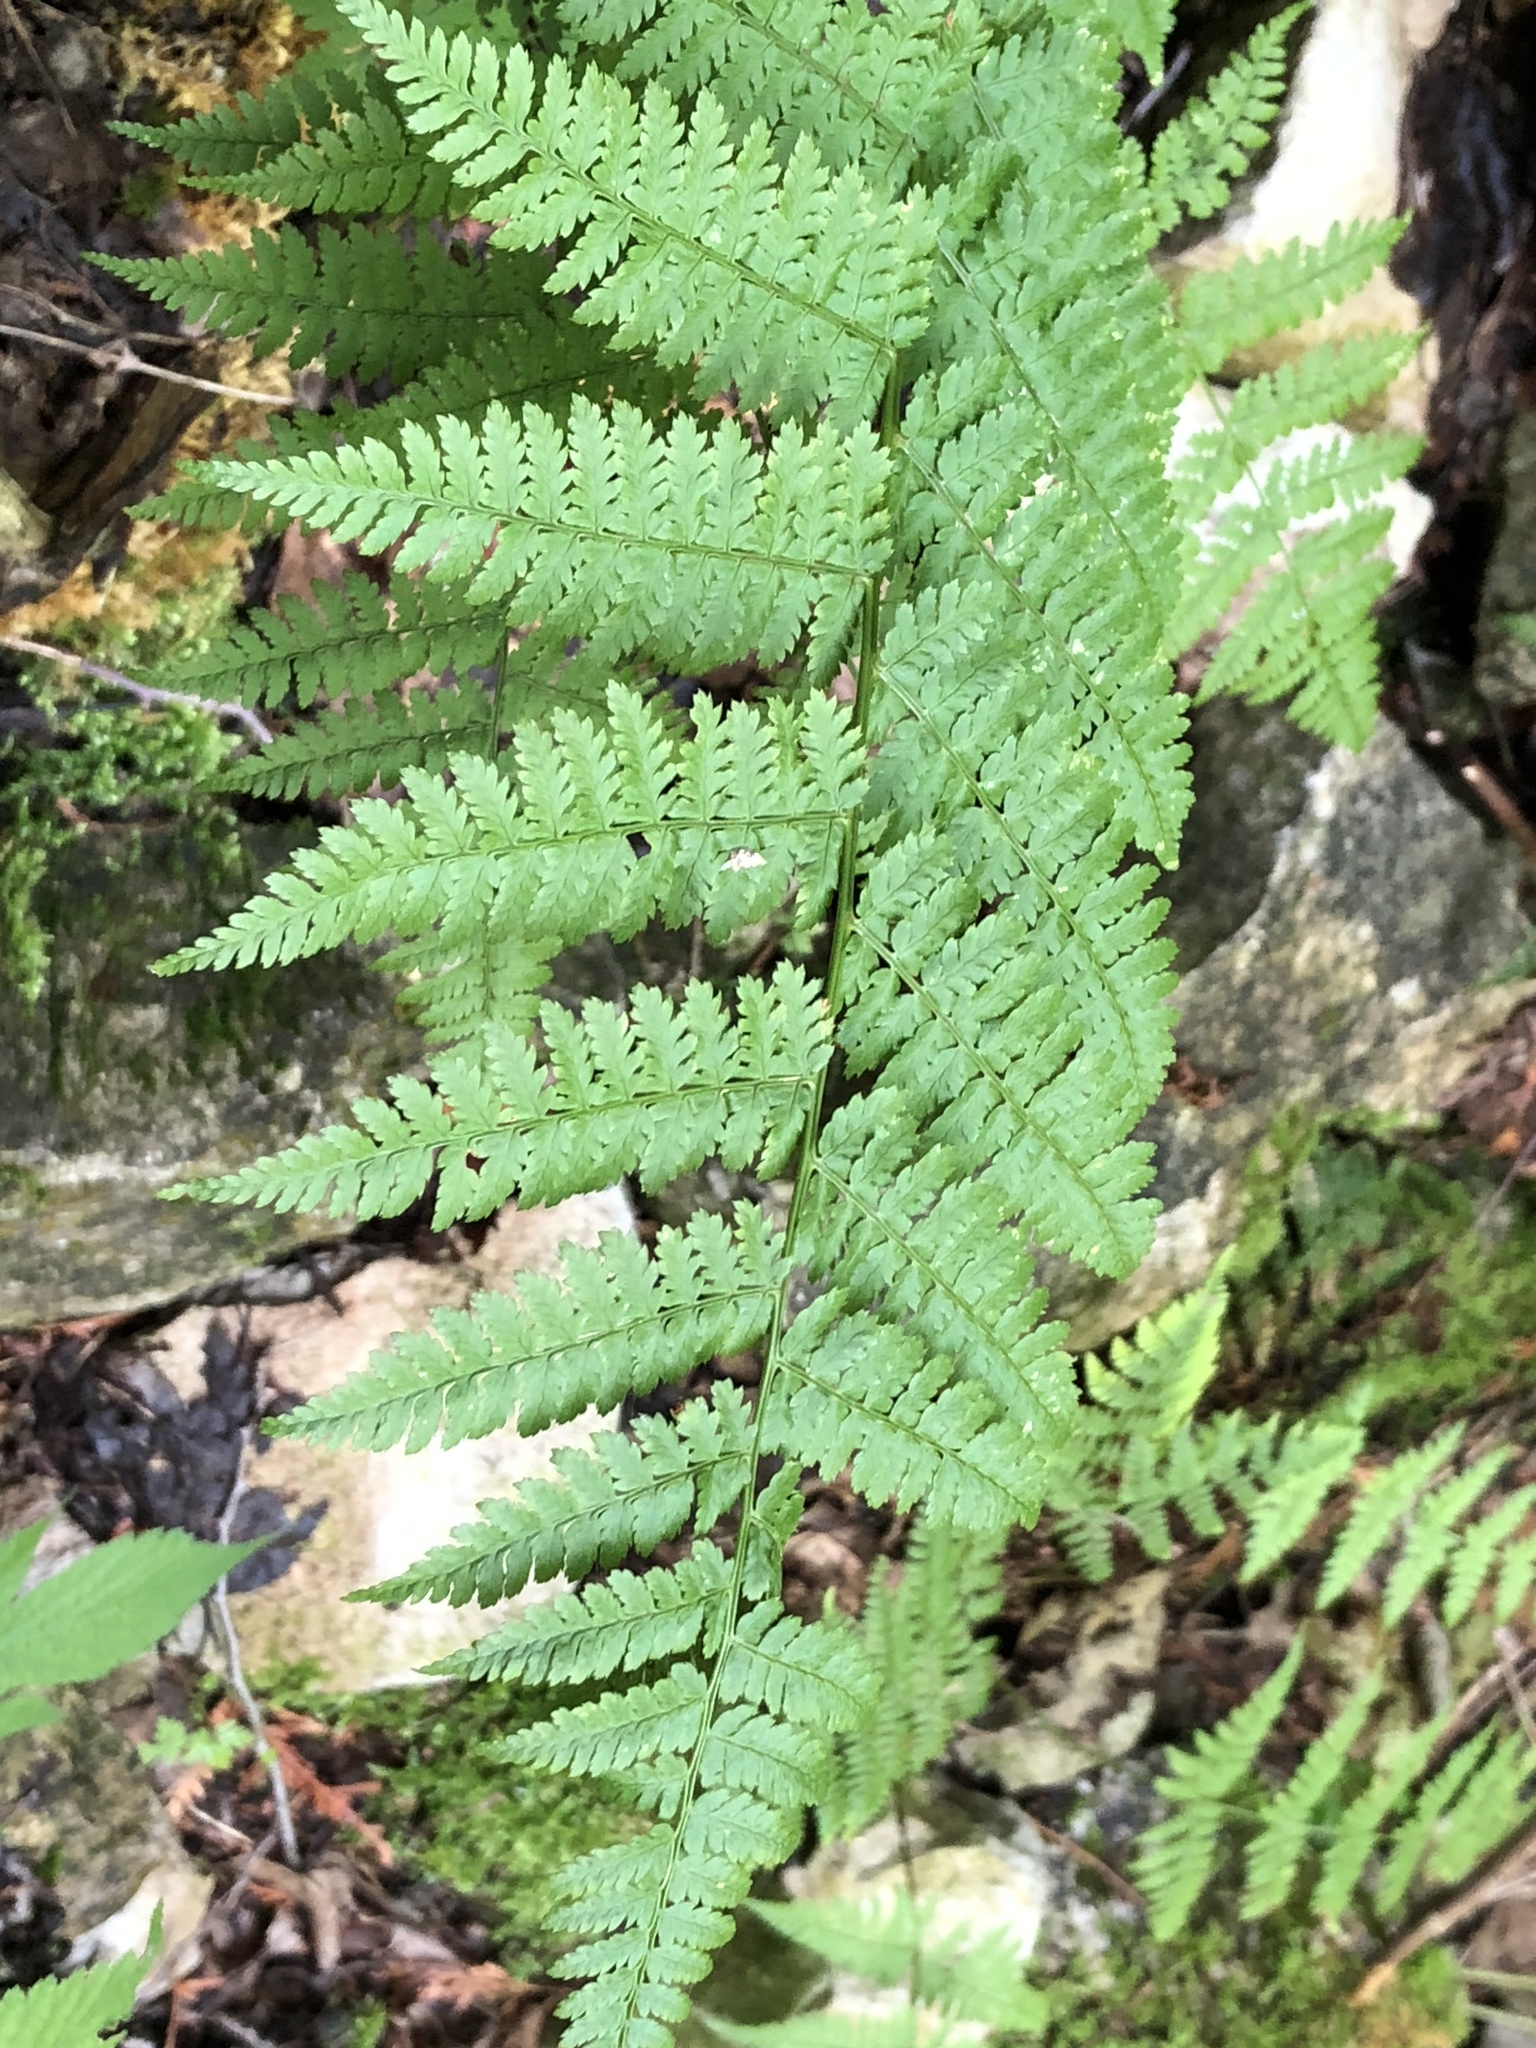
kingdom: Plantae
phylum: Tracheophyta
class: Polypodiopsida
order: Polypodiales
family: Dryopteridaceae
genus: Dryopteris
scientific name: Dryopteris intermedia
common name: Evergreen wood fern
